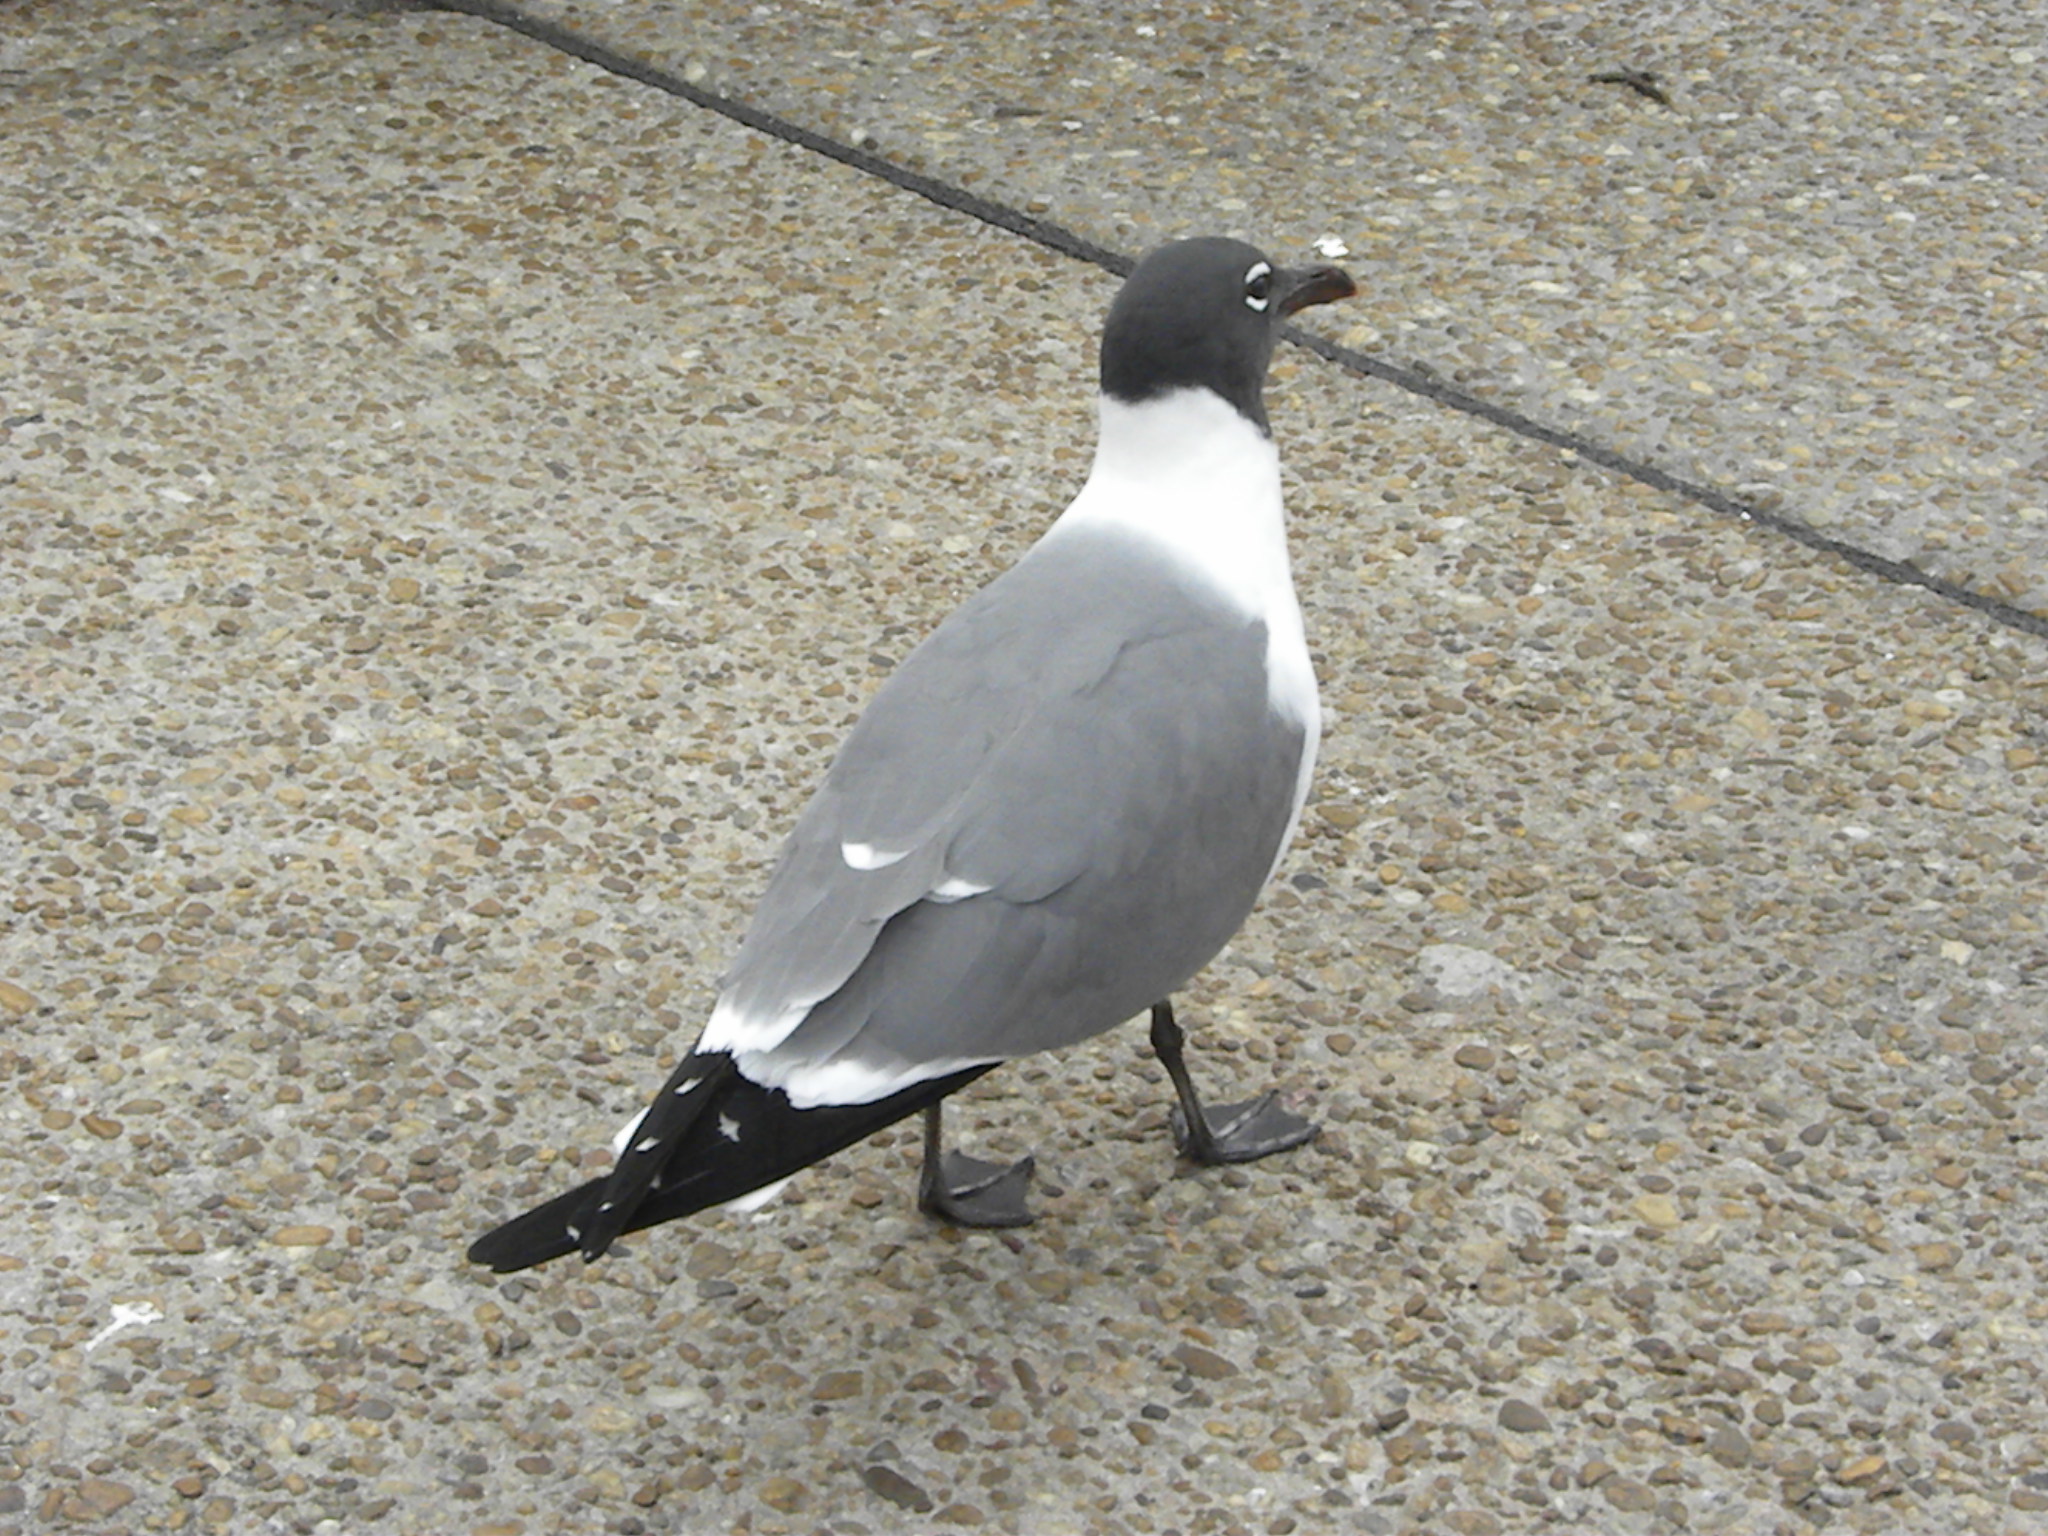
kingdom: Animalia
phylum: Chordata
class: Aves
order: Charadriiformes
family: Laridae
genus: Leucophaeus
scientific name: Leucophaeus atricilla
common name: Laughing gull
